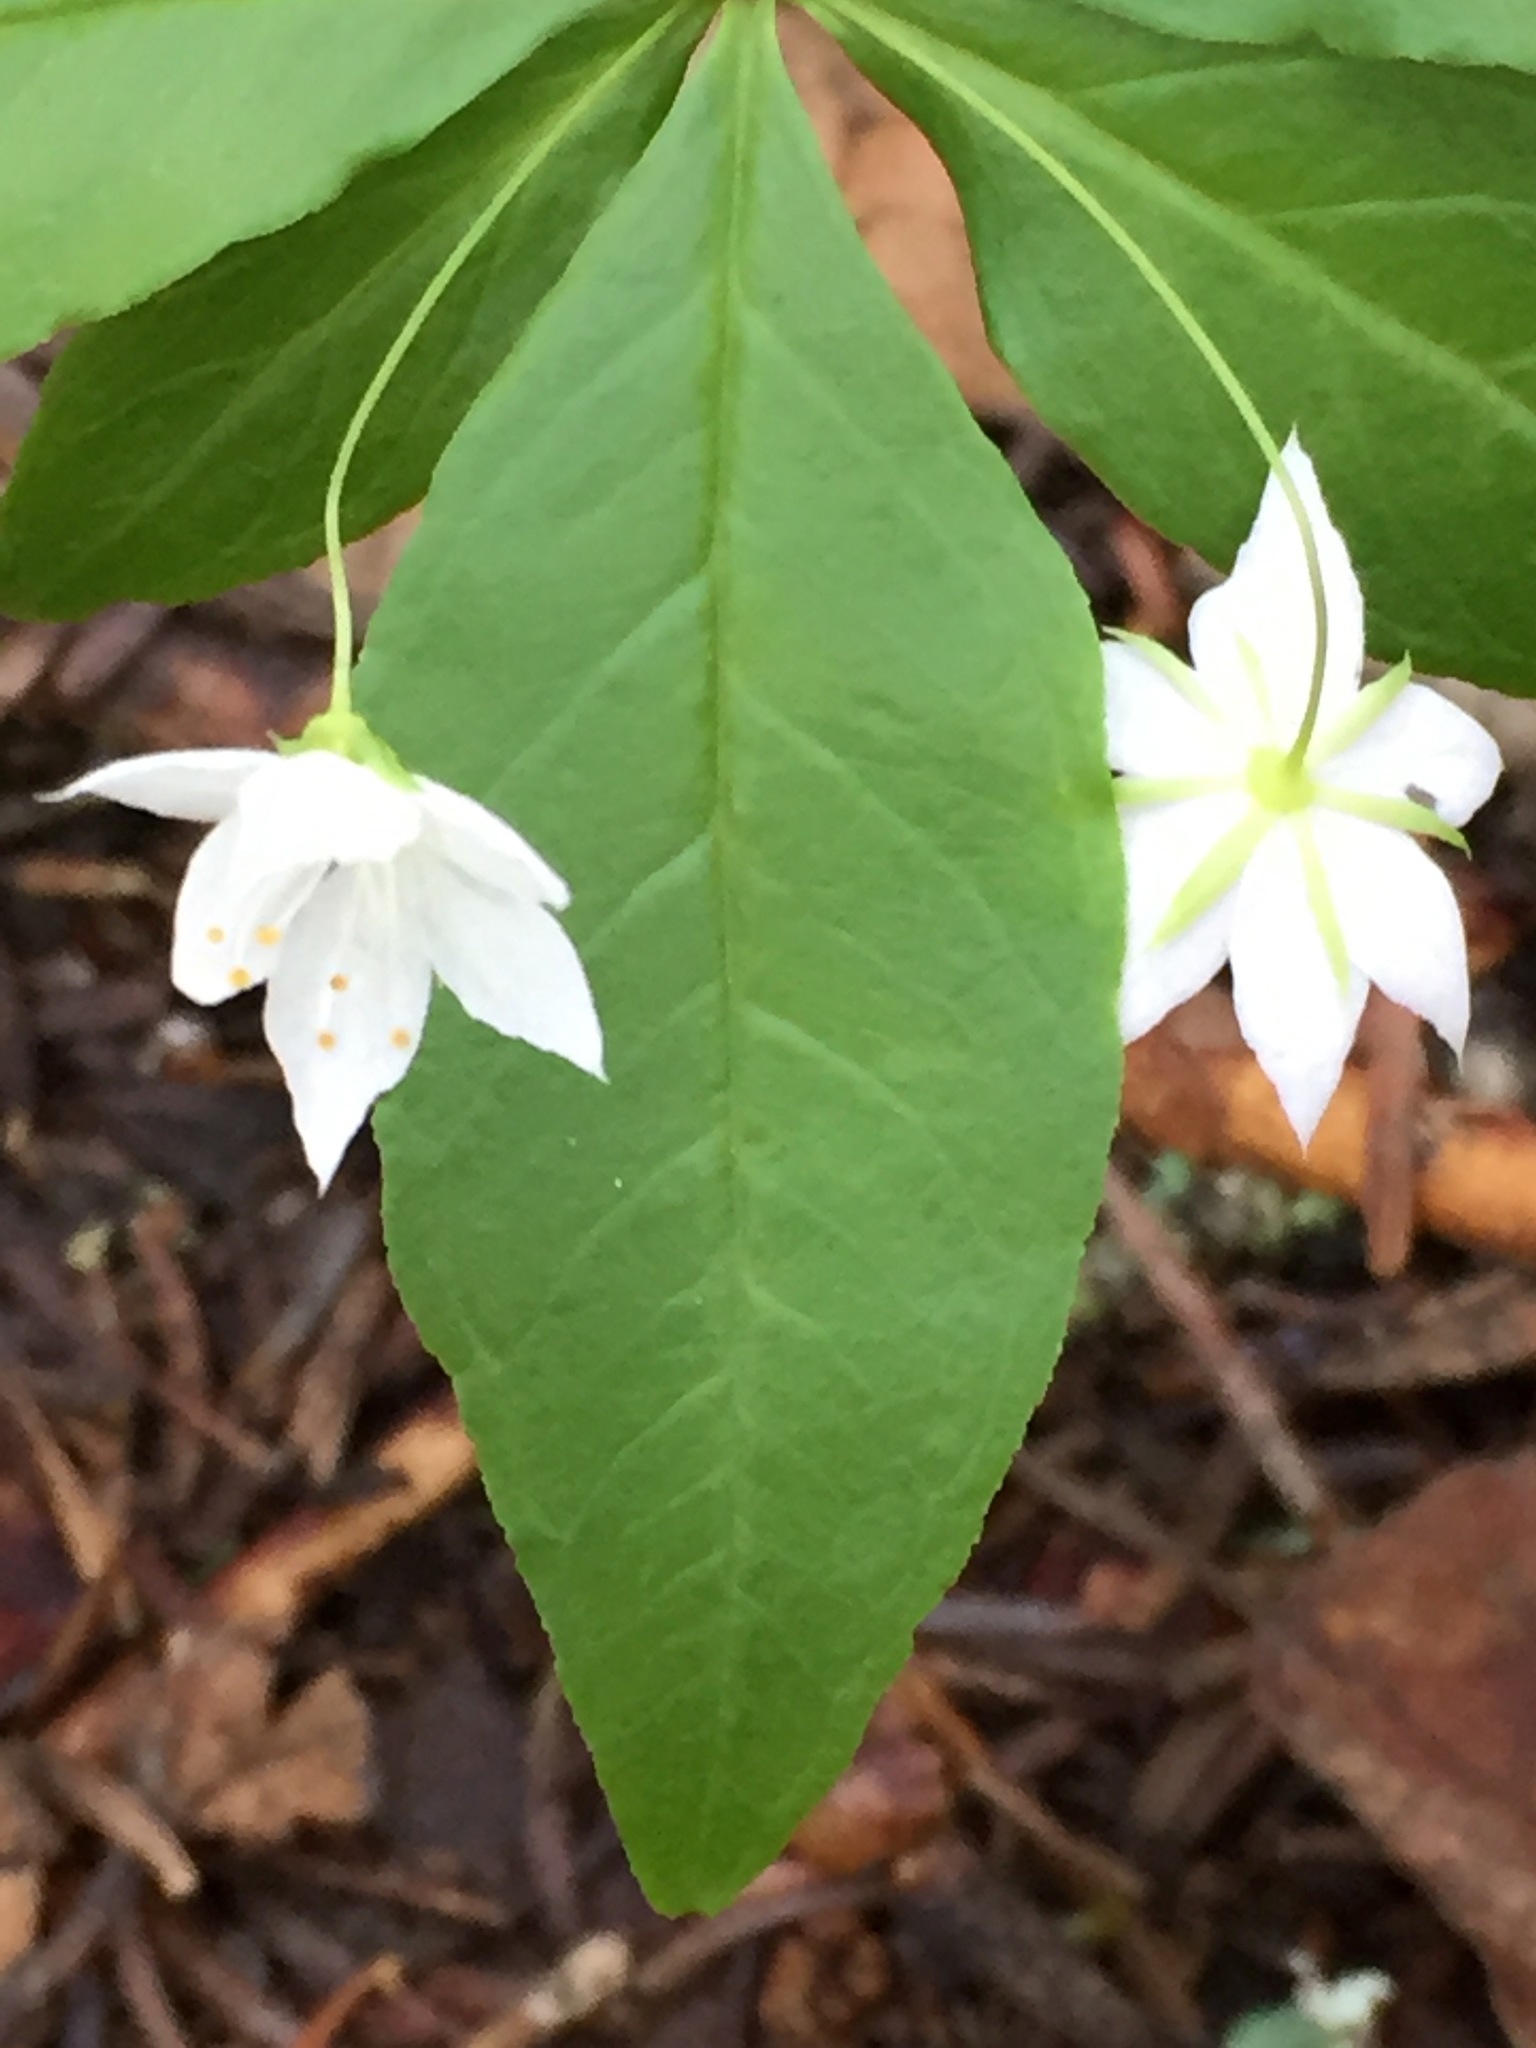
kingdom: Plantae
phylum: Tracheophyta
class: Magnoliopsida
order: Ericales
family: Primulaceae
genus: Lysimachia
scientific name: Lysimachia borealis
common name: American starflower
